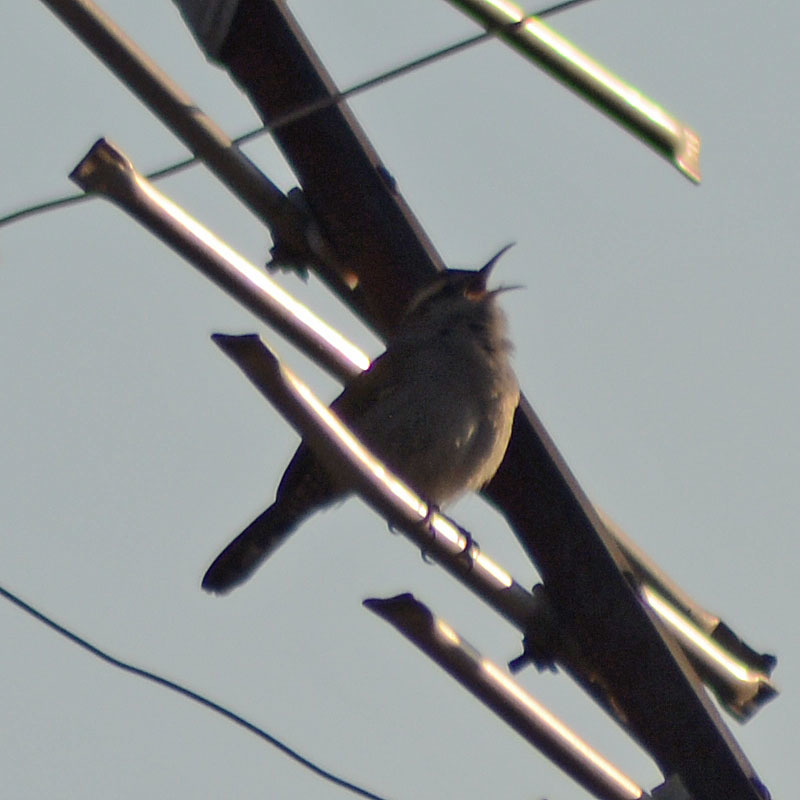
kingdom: Animalia
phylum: Chordata
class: Aves
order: Passeriformes
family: Troglodytidae
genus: Thryomanes
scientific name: Thryomanes bewickii
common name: Bewick's wren
